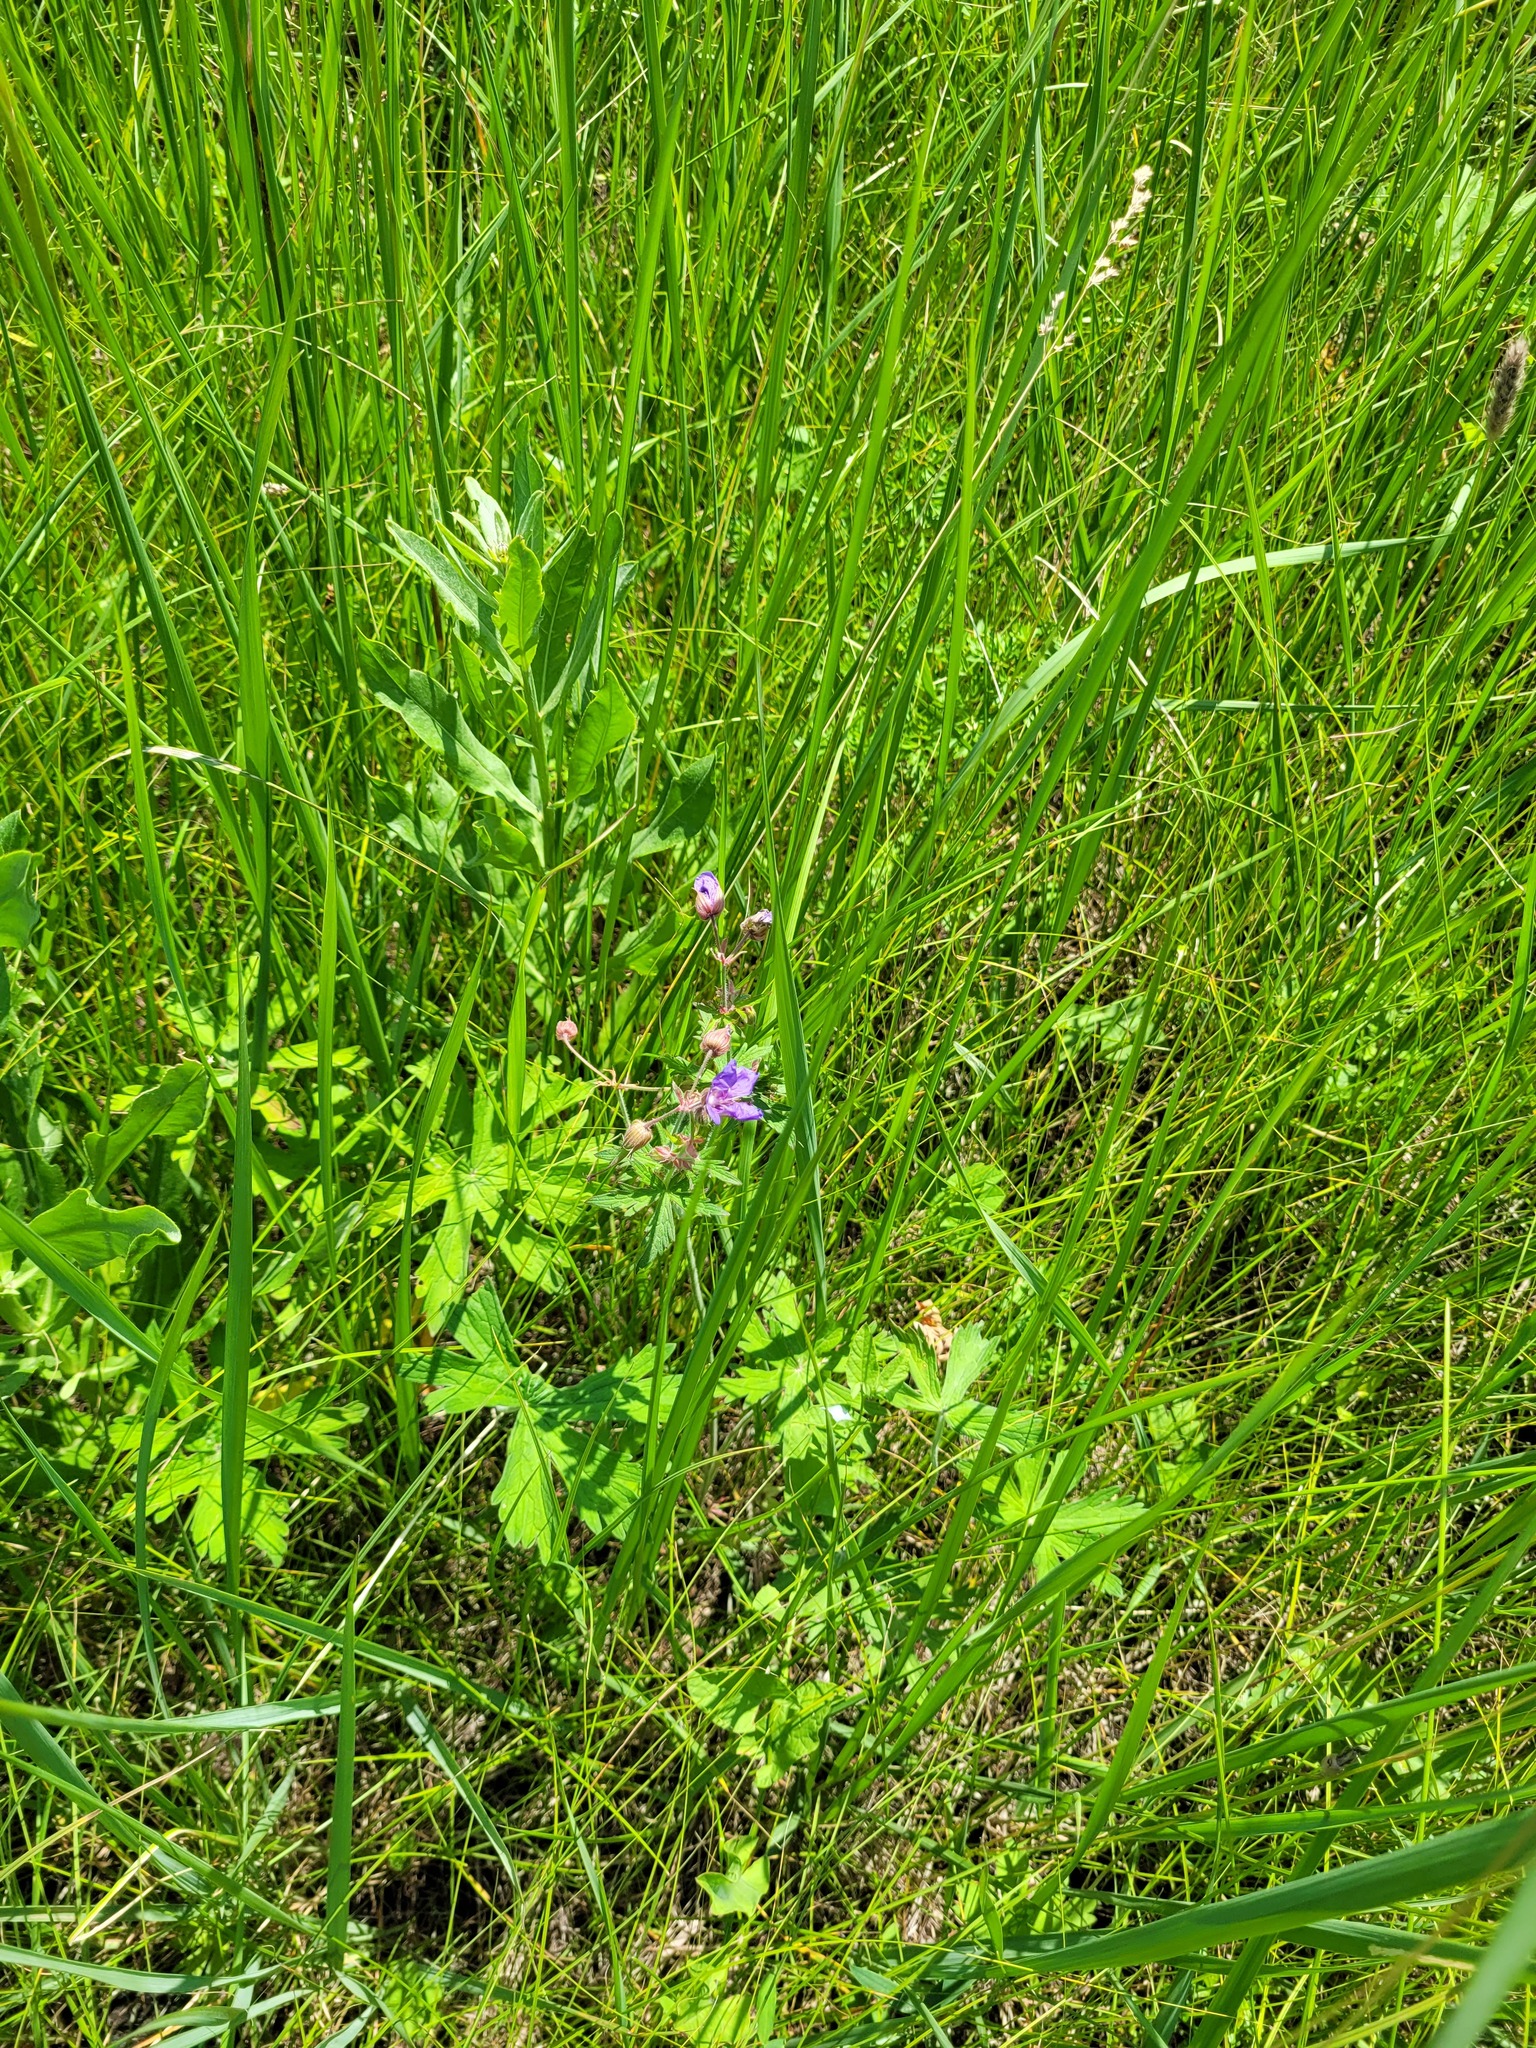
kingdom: Plantae
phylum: Tracheophyta
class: Magnoliopsida
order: Geraniales
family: Geraniaceae
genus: Geranium
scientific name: Geranium pratense
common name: Meadow crane's-bill
